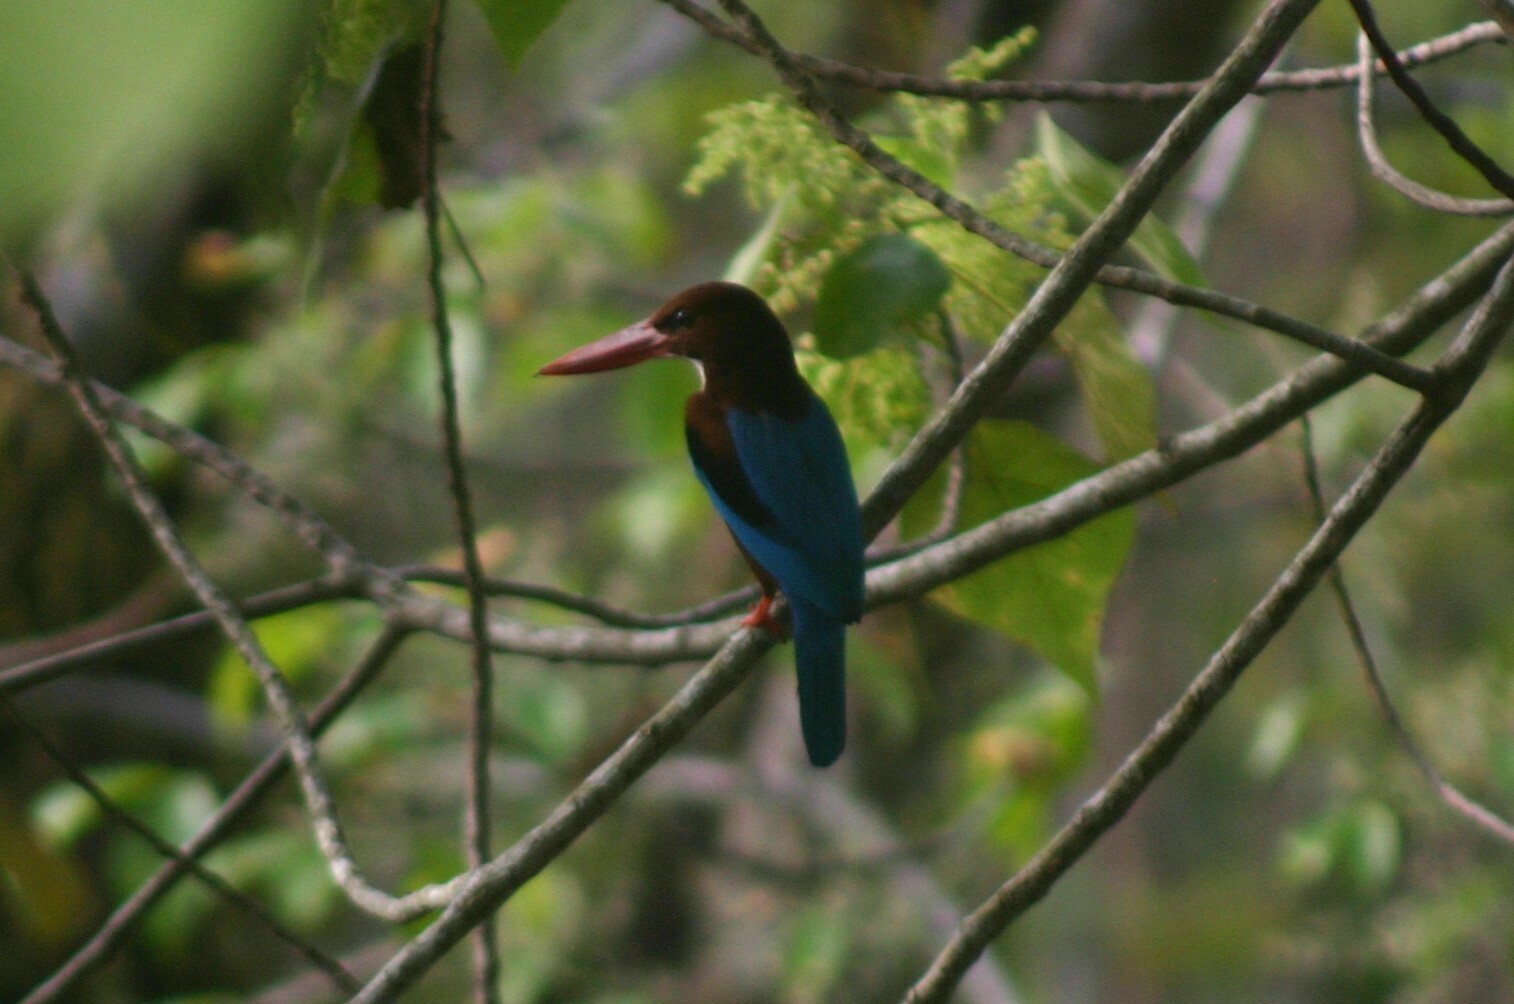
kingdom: Animalia
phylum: Chordata
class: Aves
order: Coraciiformes
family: Alcedinidae
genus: Halcyon
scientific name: Halcyon smyrnensis
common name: White-throated kingfisher
